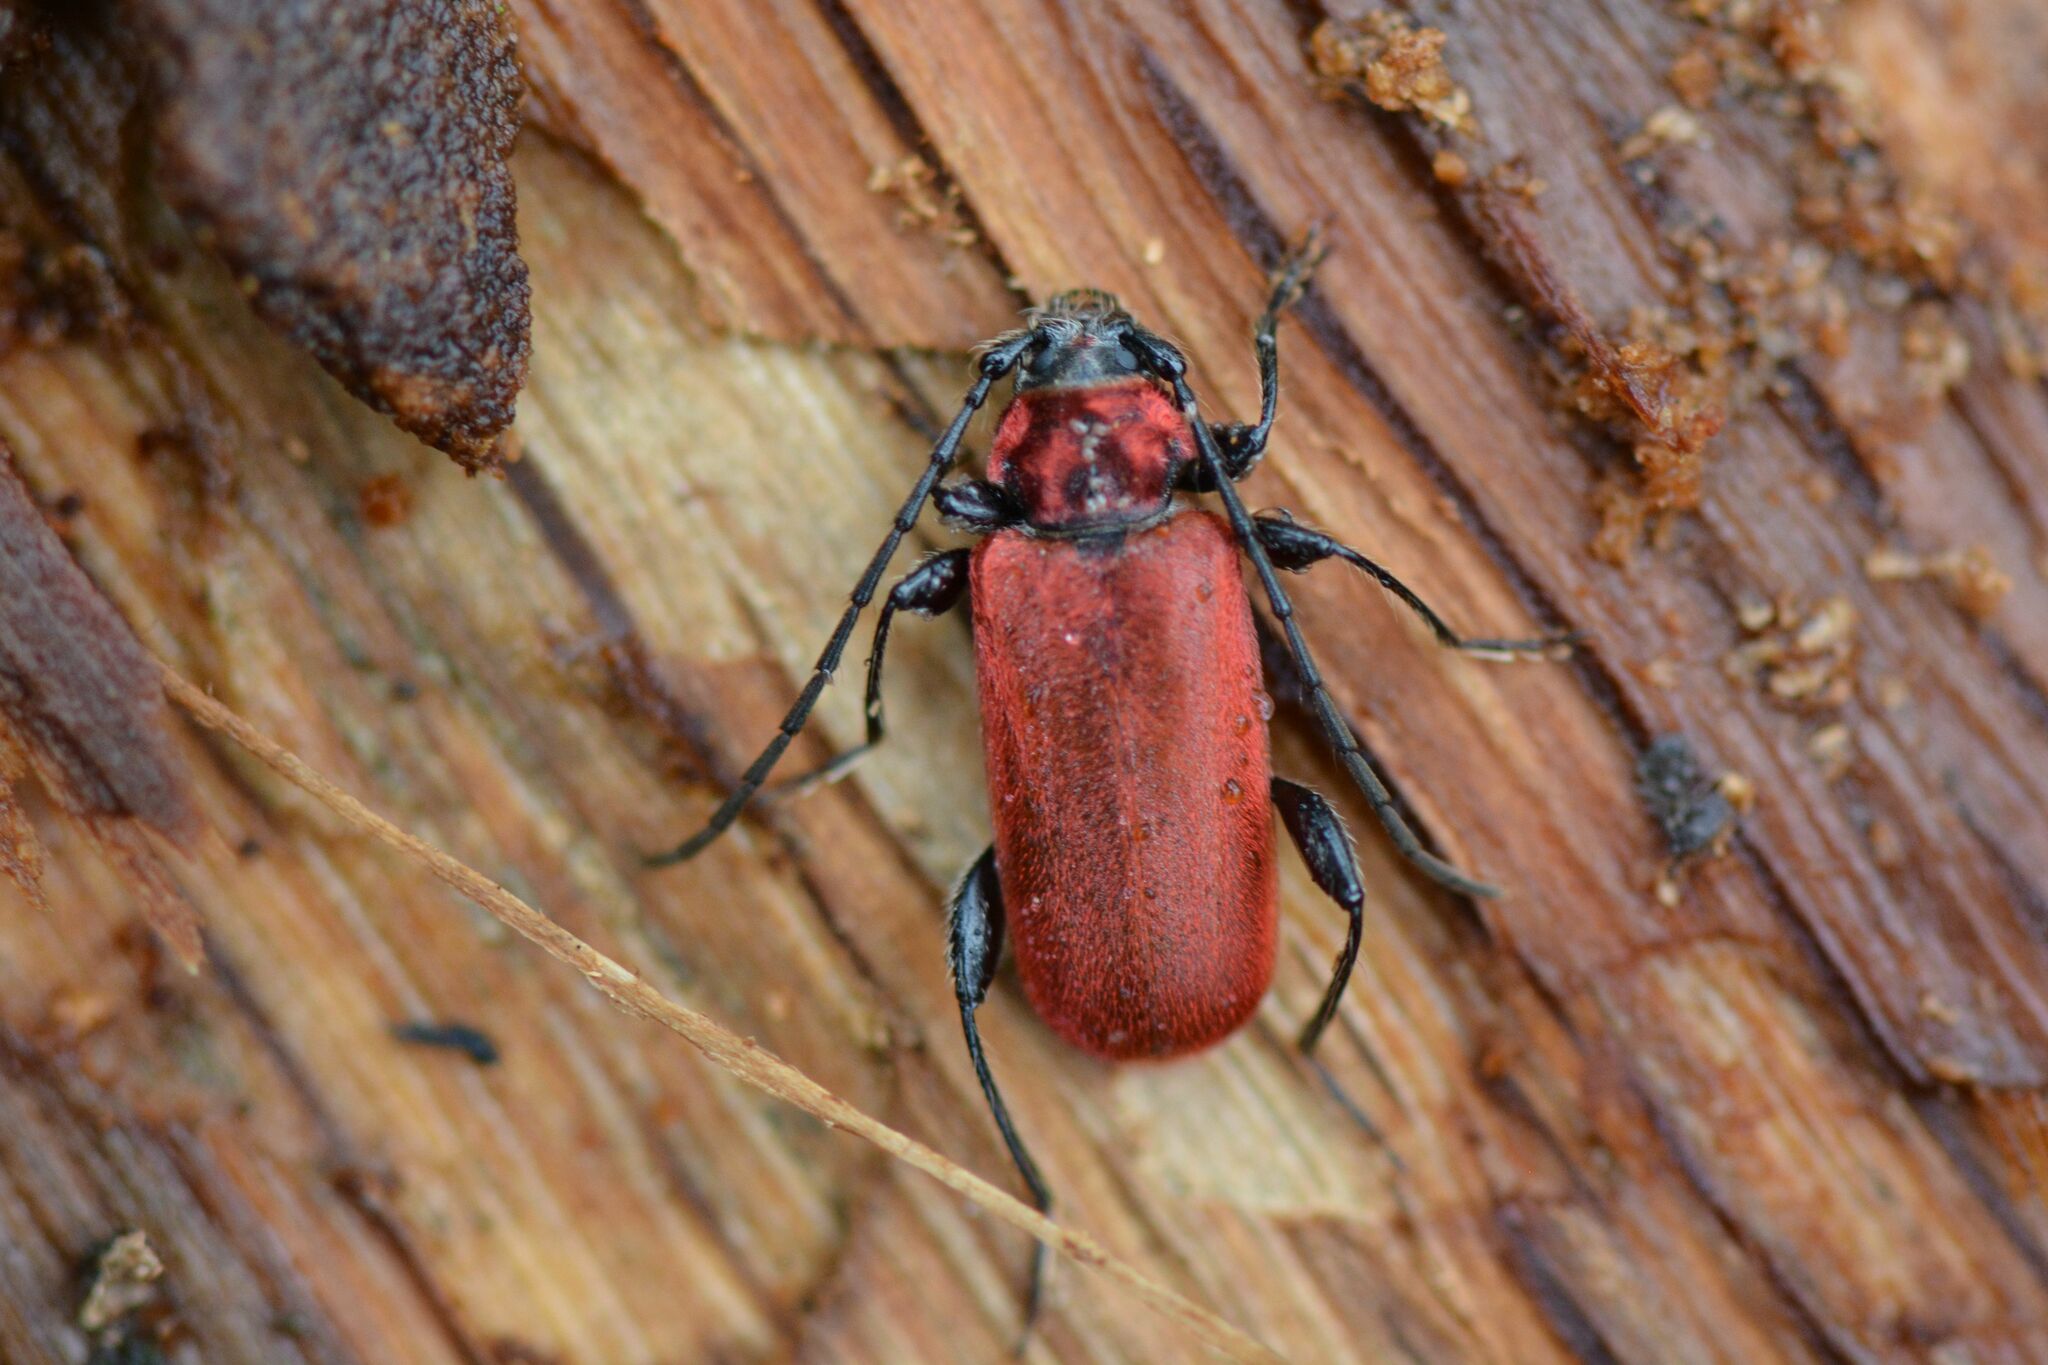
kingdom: Animalia
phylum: Arthropoda
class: Insecta
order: Coleoptera
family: Cerambycidae
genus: Pyrrhidium
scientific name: Pyrrhidium sanguineum
